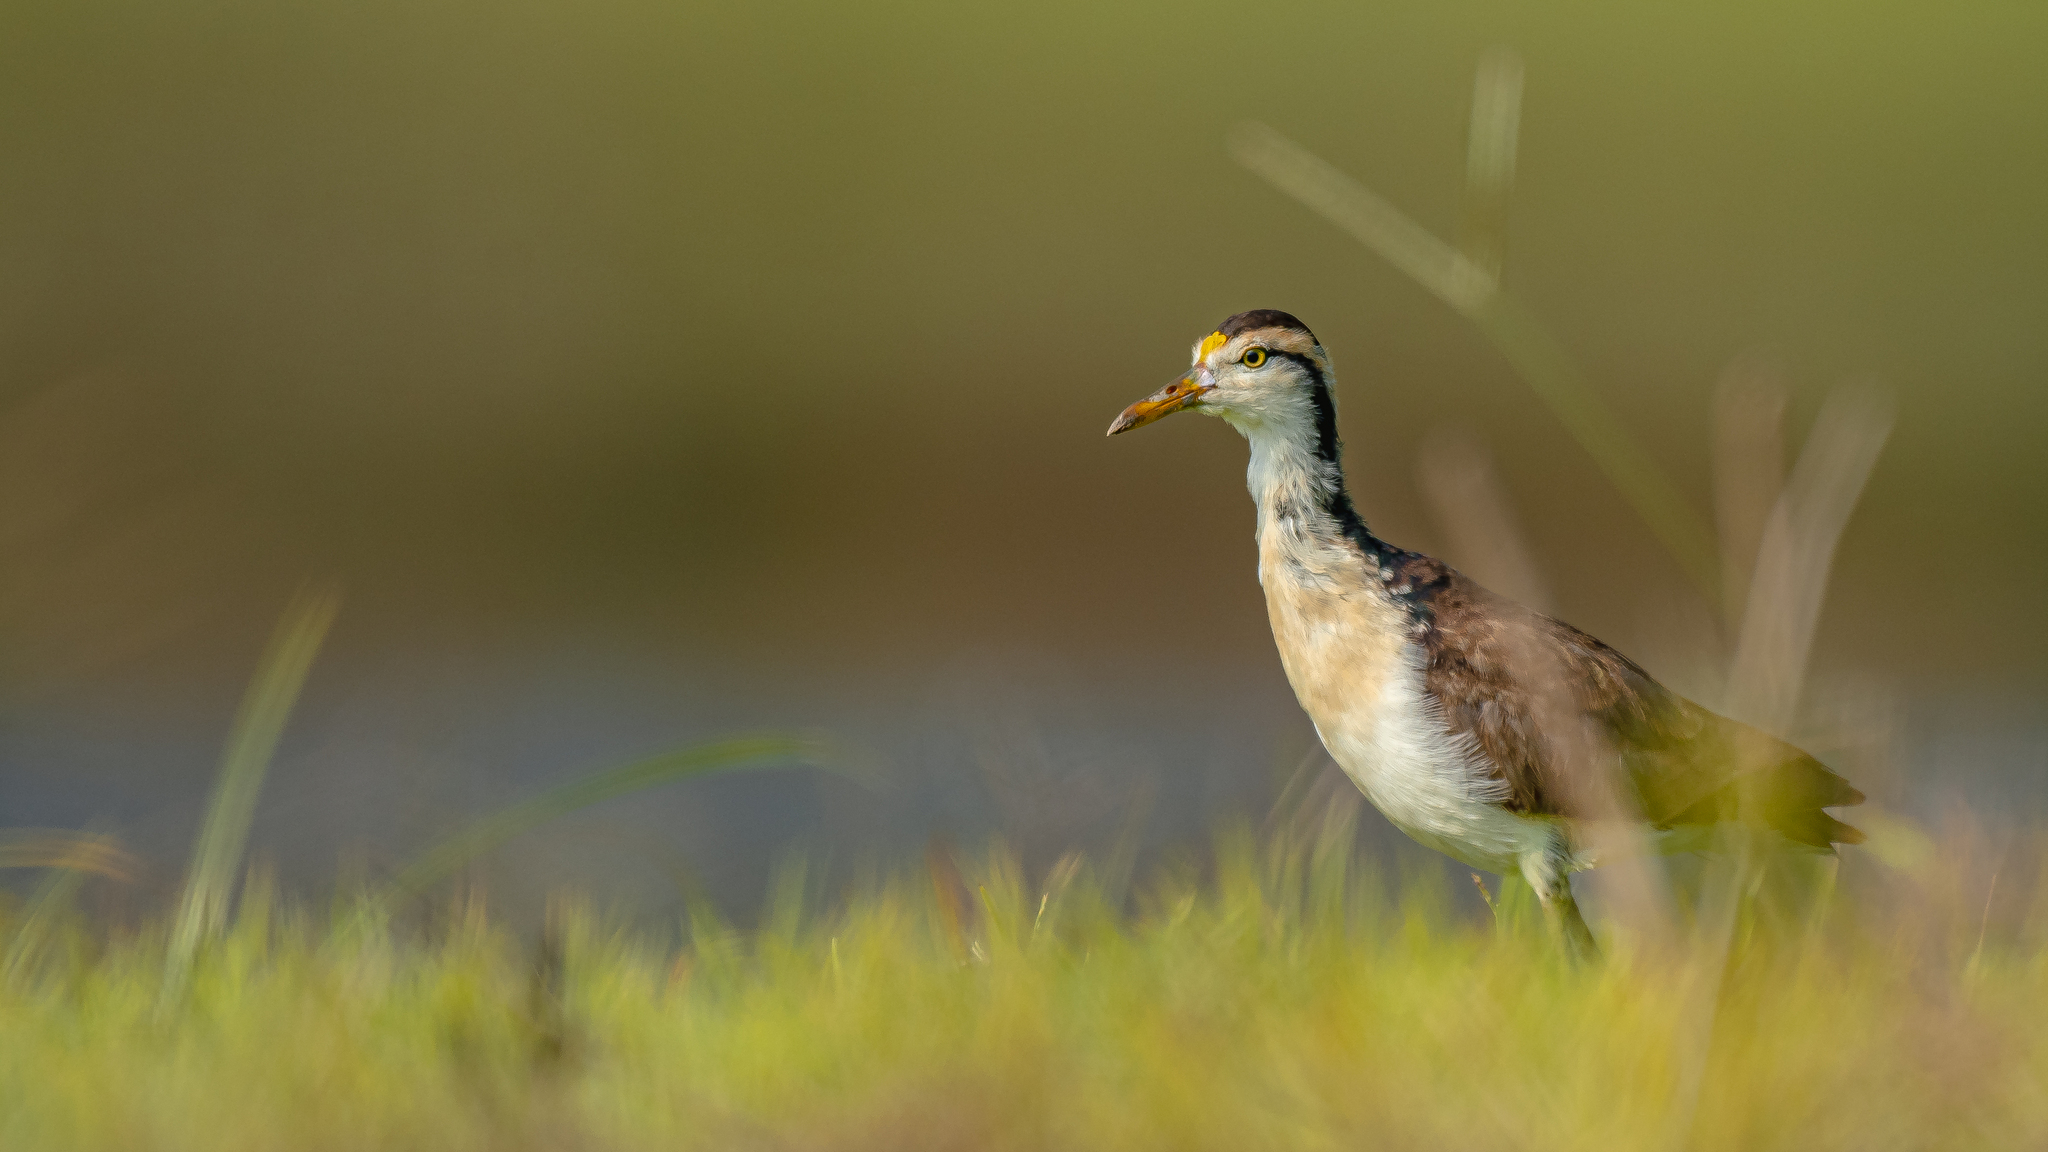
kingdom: Animalia
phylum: Chordata
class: Aves
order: Charadriiformes
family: Jacanidae
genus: Jacana
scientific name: Jacana spinosa
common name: Northern jacana
